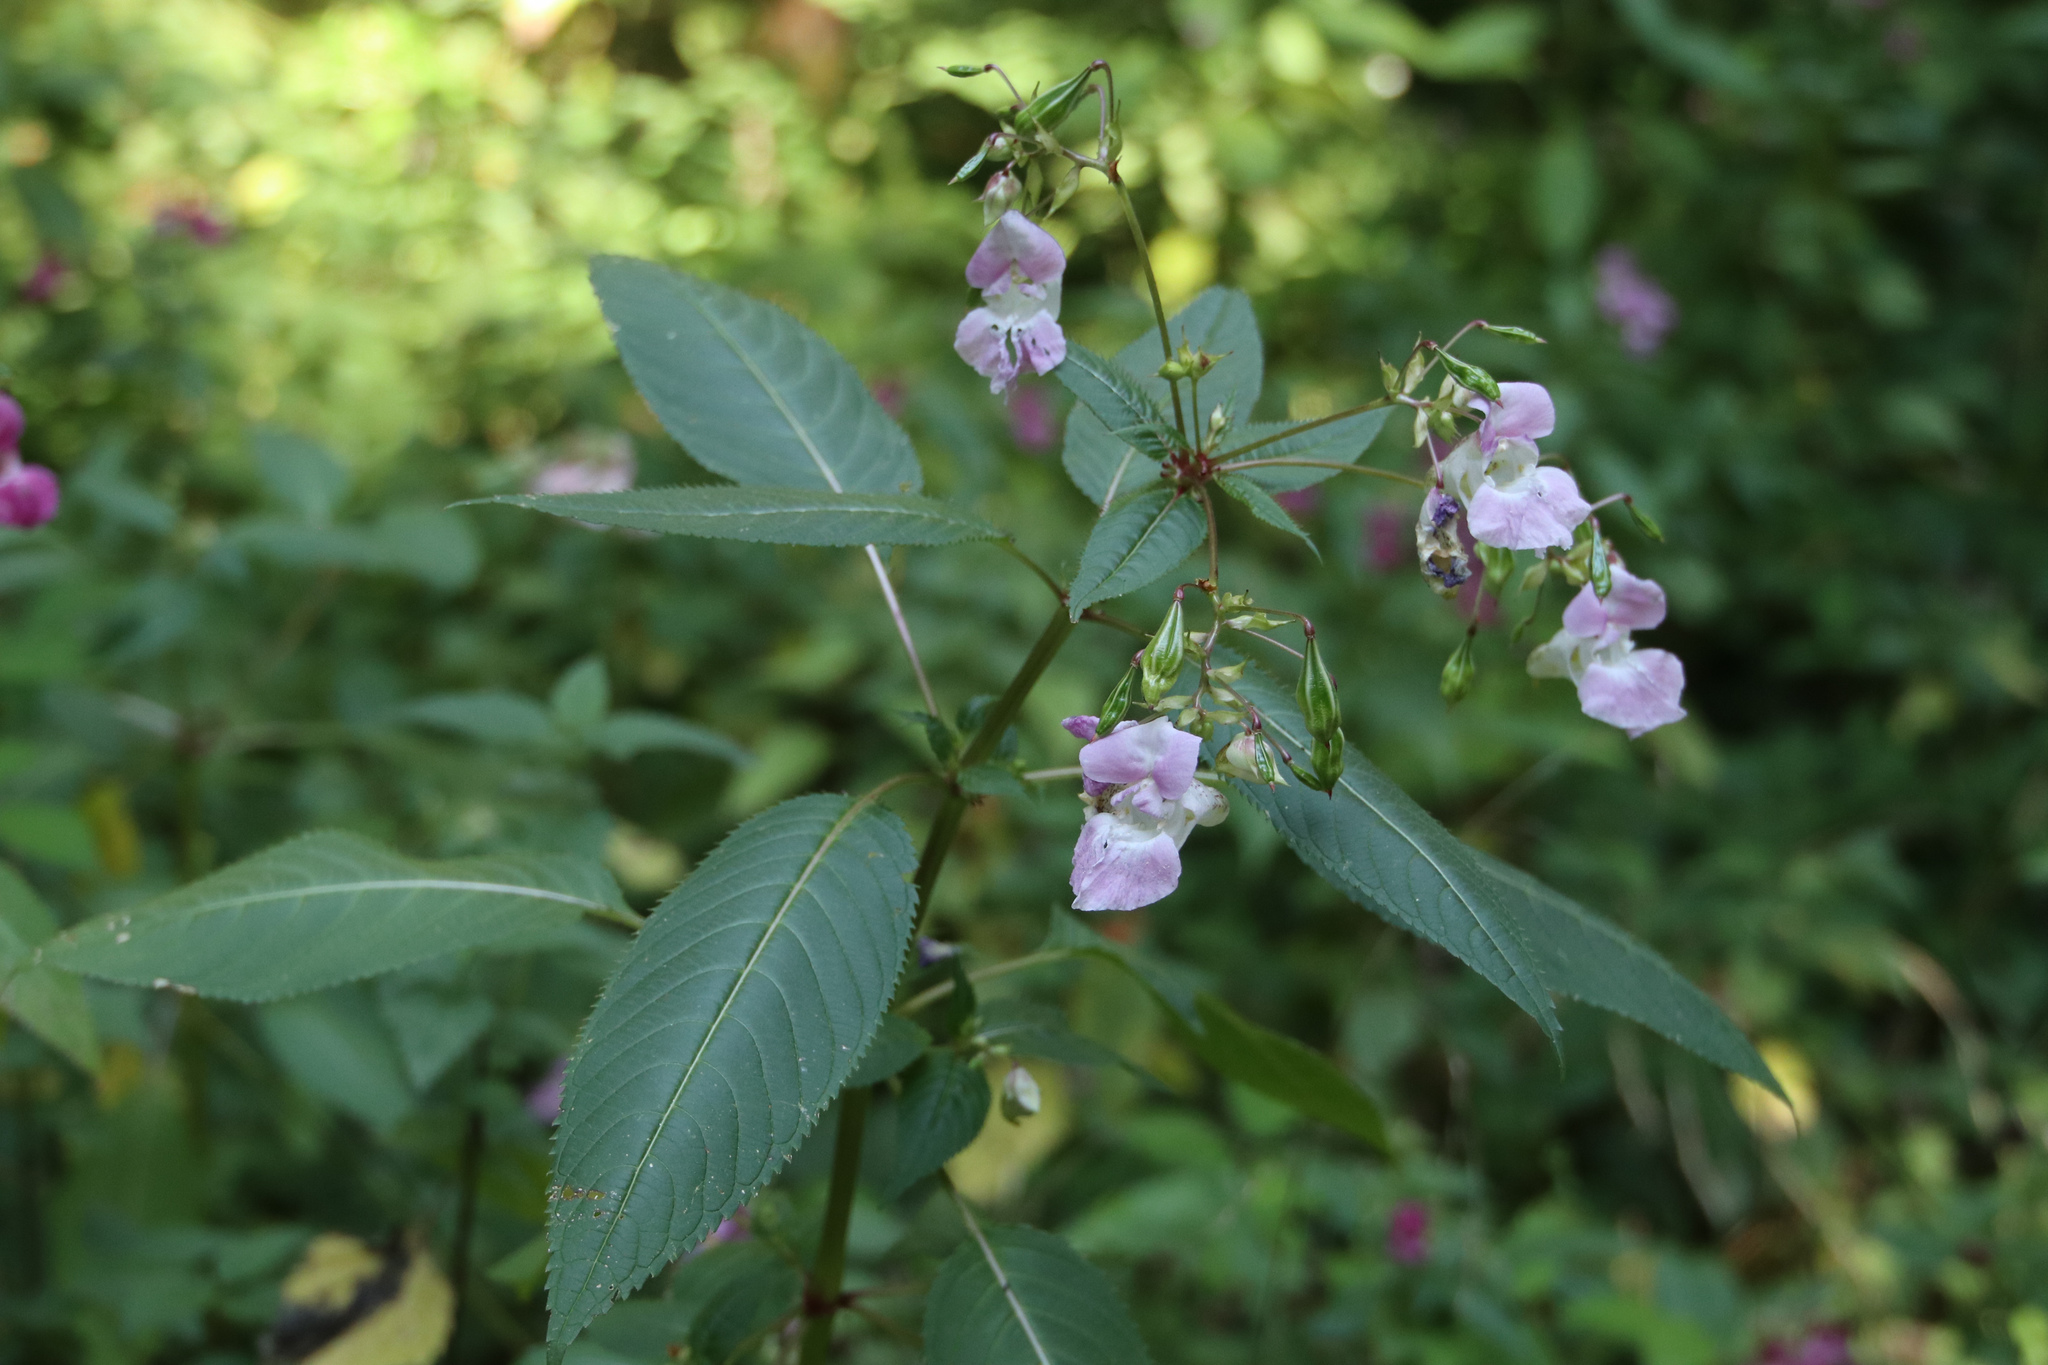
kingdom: Plantae
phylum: Tracheophyta
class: Magnoliopsida
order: Ericales
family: Balsaminaceae
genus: Impatiens
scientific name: Impatiens glandulifera
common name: Himalayan balsam
